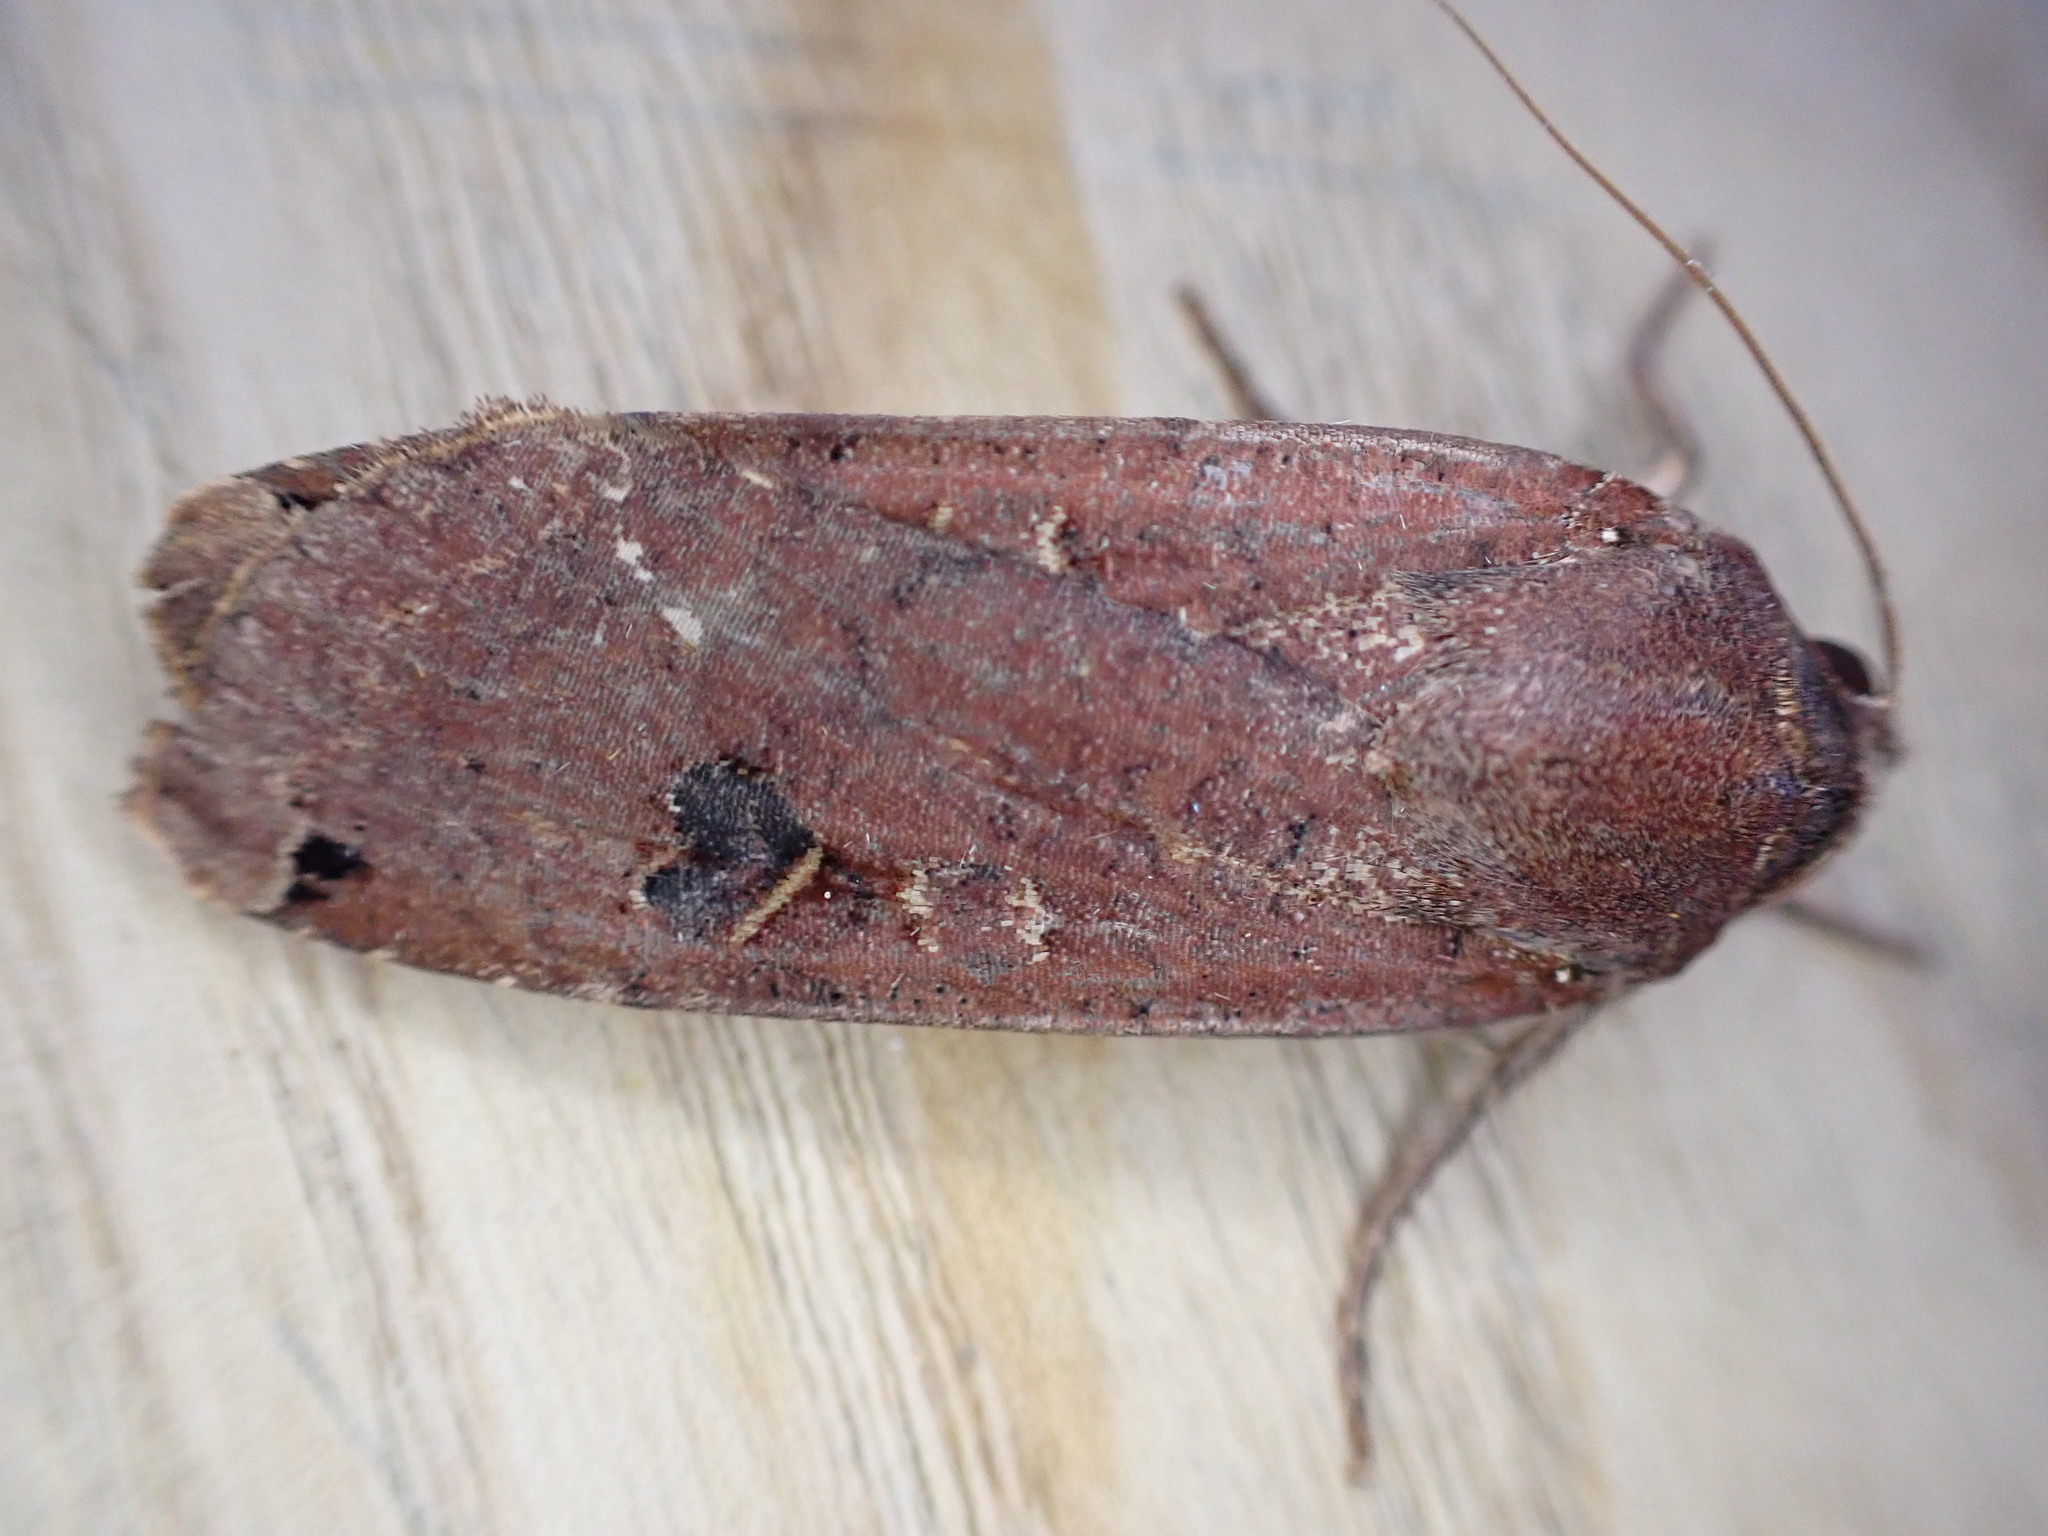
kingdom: Animalia
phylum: Arthropoda
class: Insecta
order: Lepidoptera
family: Noctuidae
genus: Noctua
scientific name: Noctua pronuba
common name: Large yellow underwing
